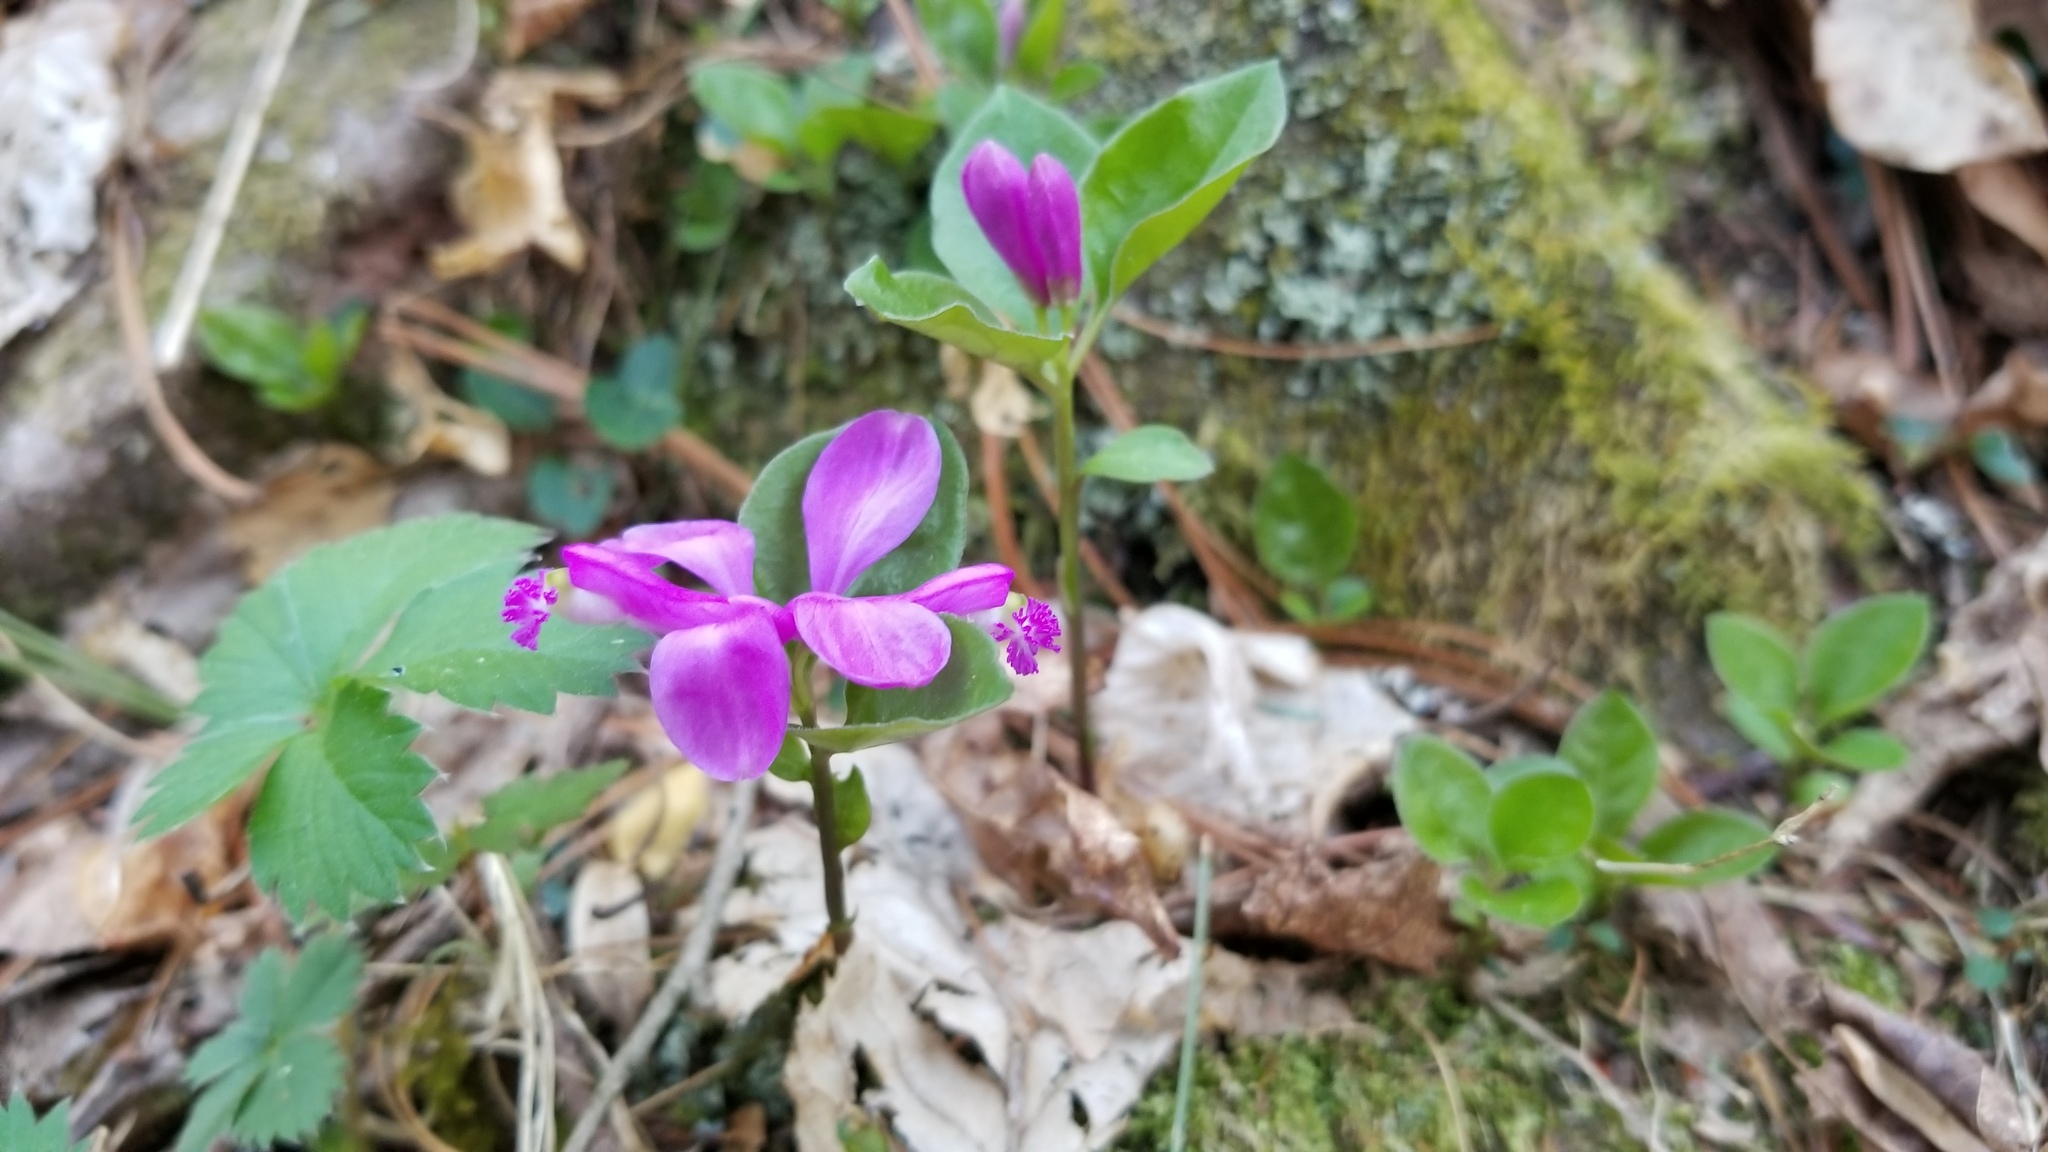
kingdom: Plantae
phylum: Tracheophyta
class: Magnoliopsida
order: Fabales
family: Polygalaceae
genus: Polygaloides
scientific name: Polygaloides paucifolia
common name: Bird-on-the-wing
